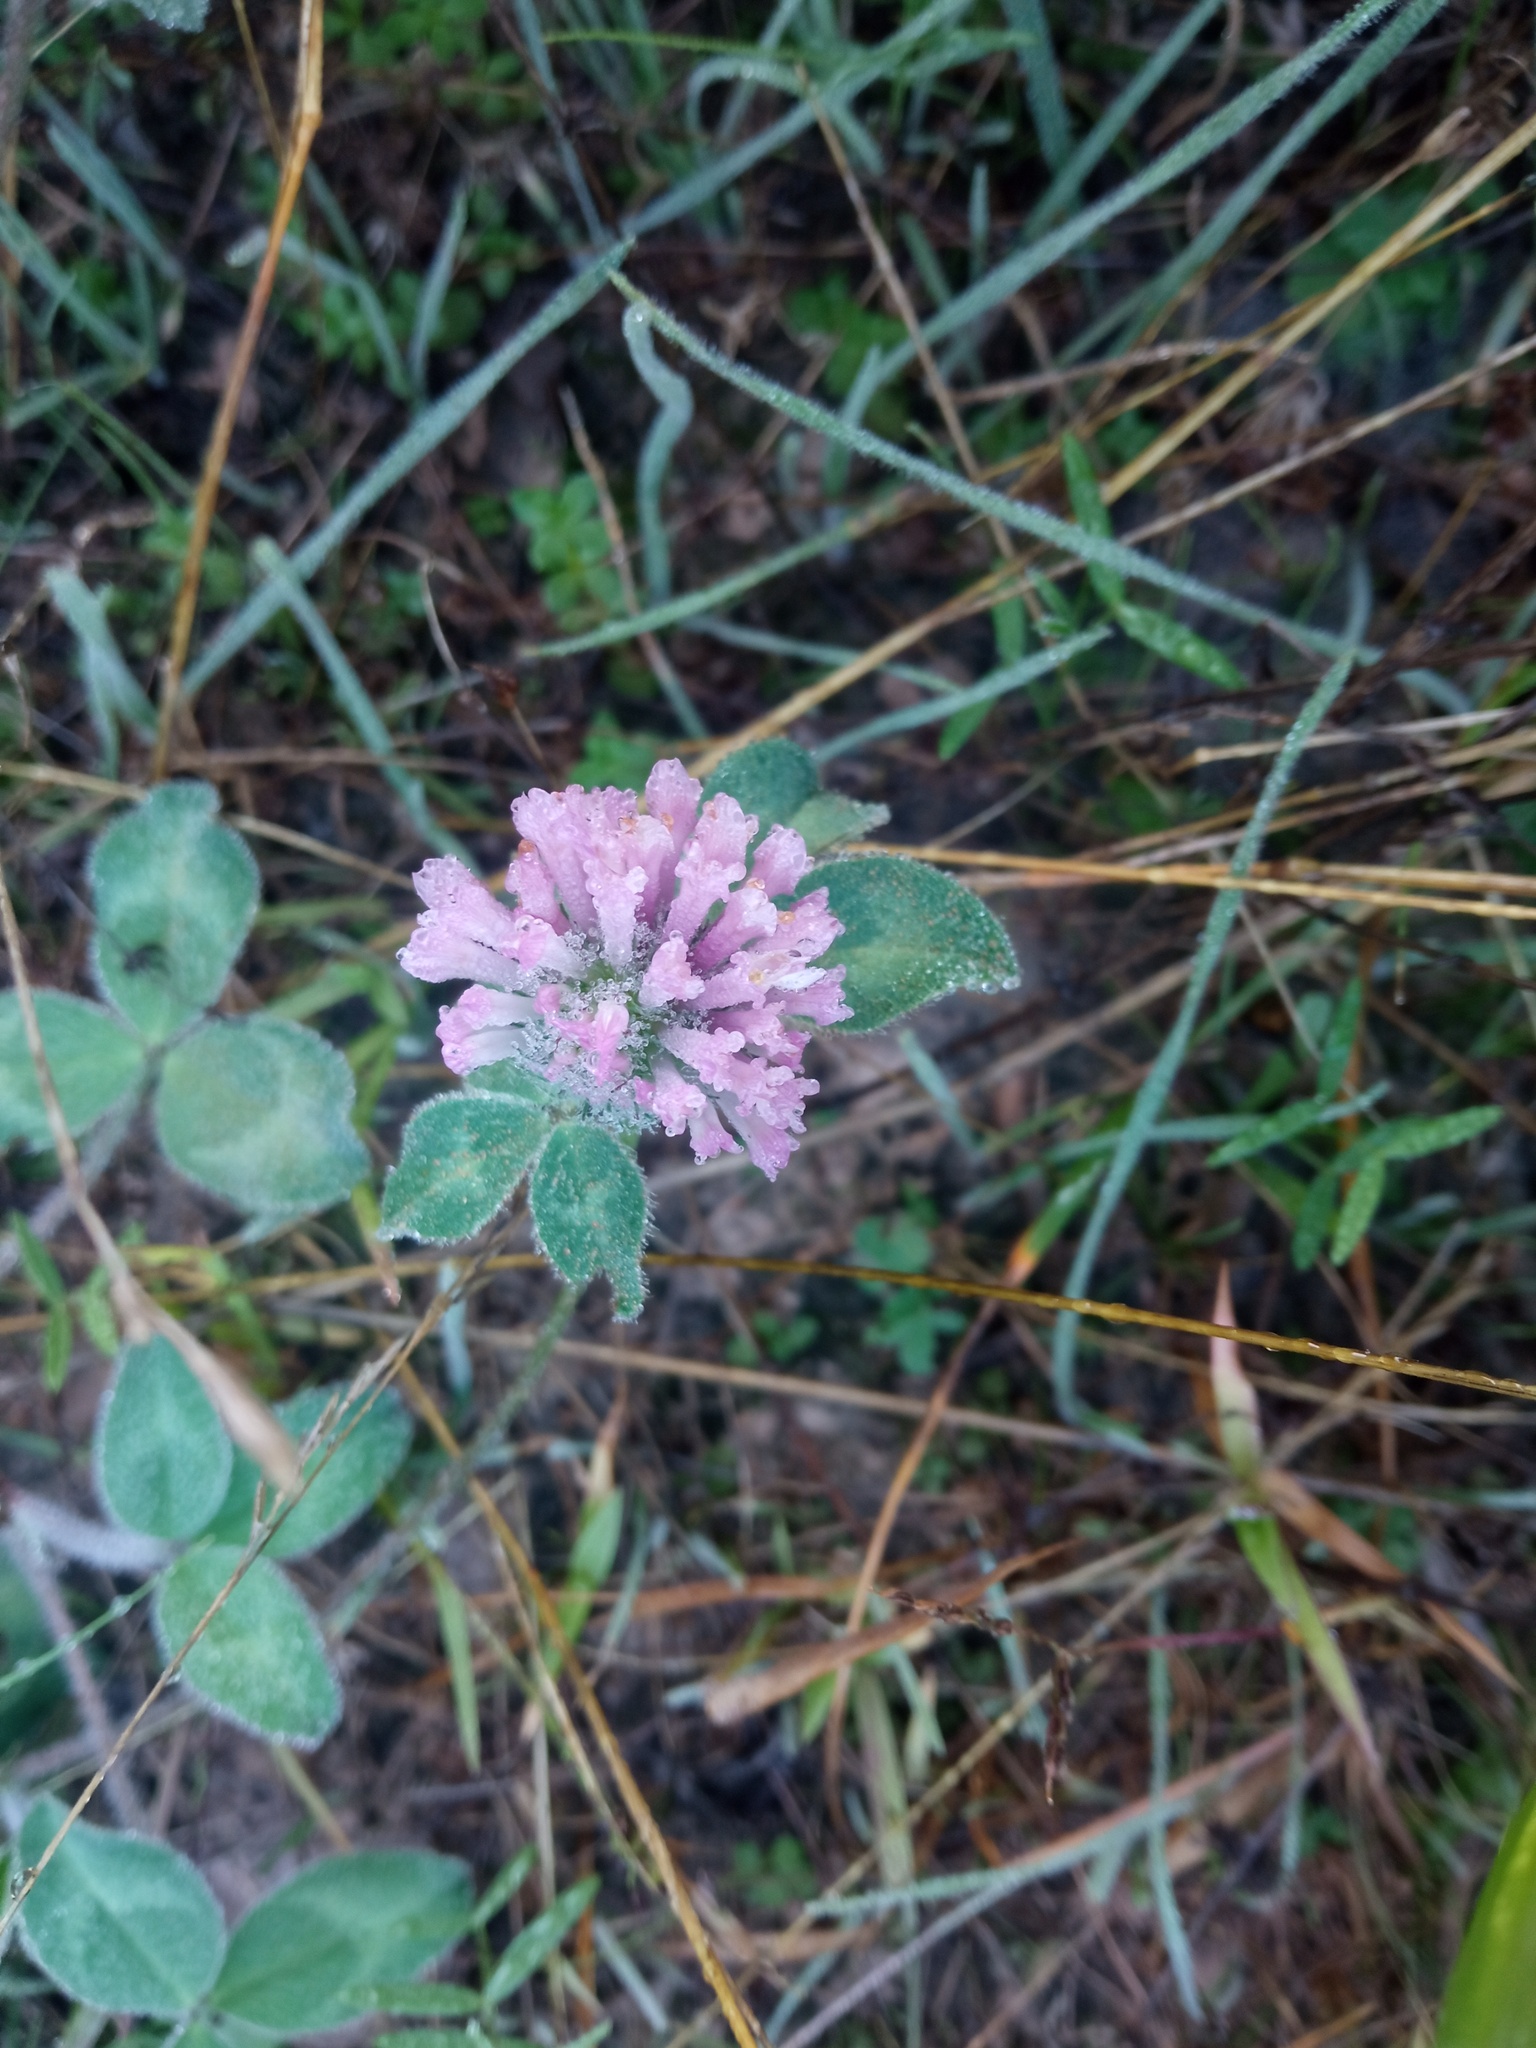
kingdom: Plantae
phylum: Tracheophyta
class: Magnoliopsida
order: Fabales
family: Fabaceae
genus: Trifolium
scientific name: Trifolium pratense
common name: Red clover
